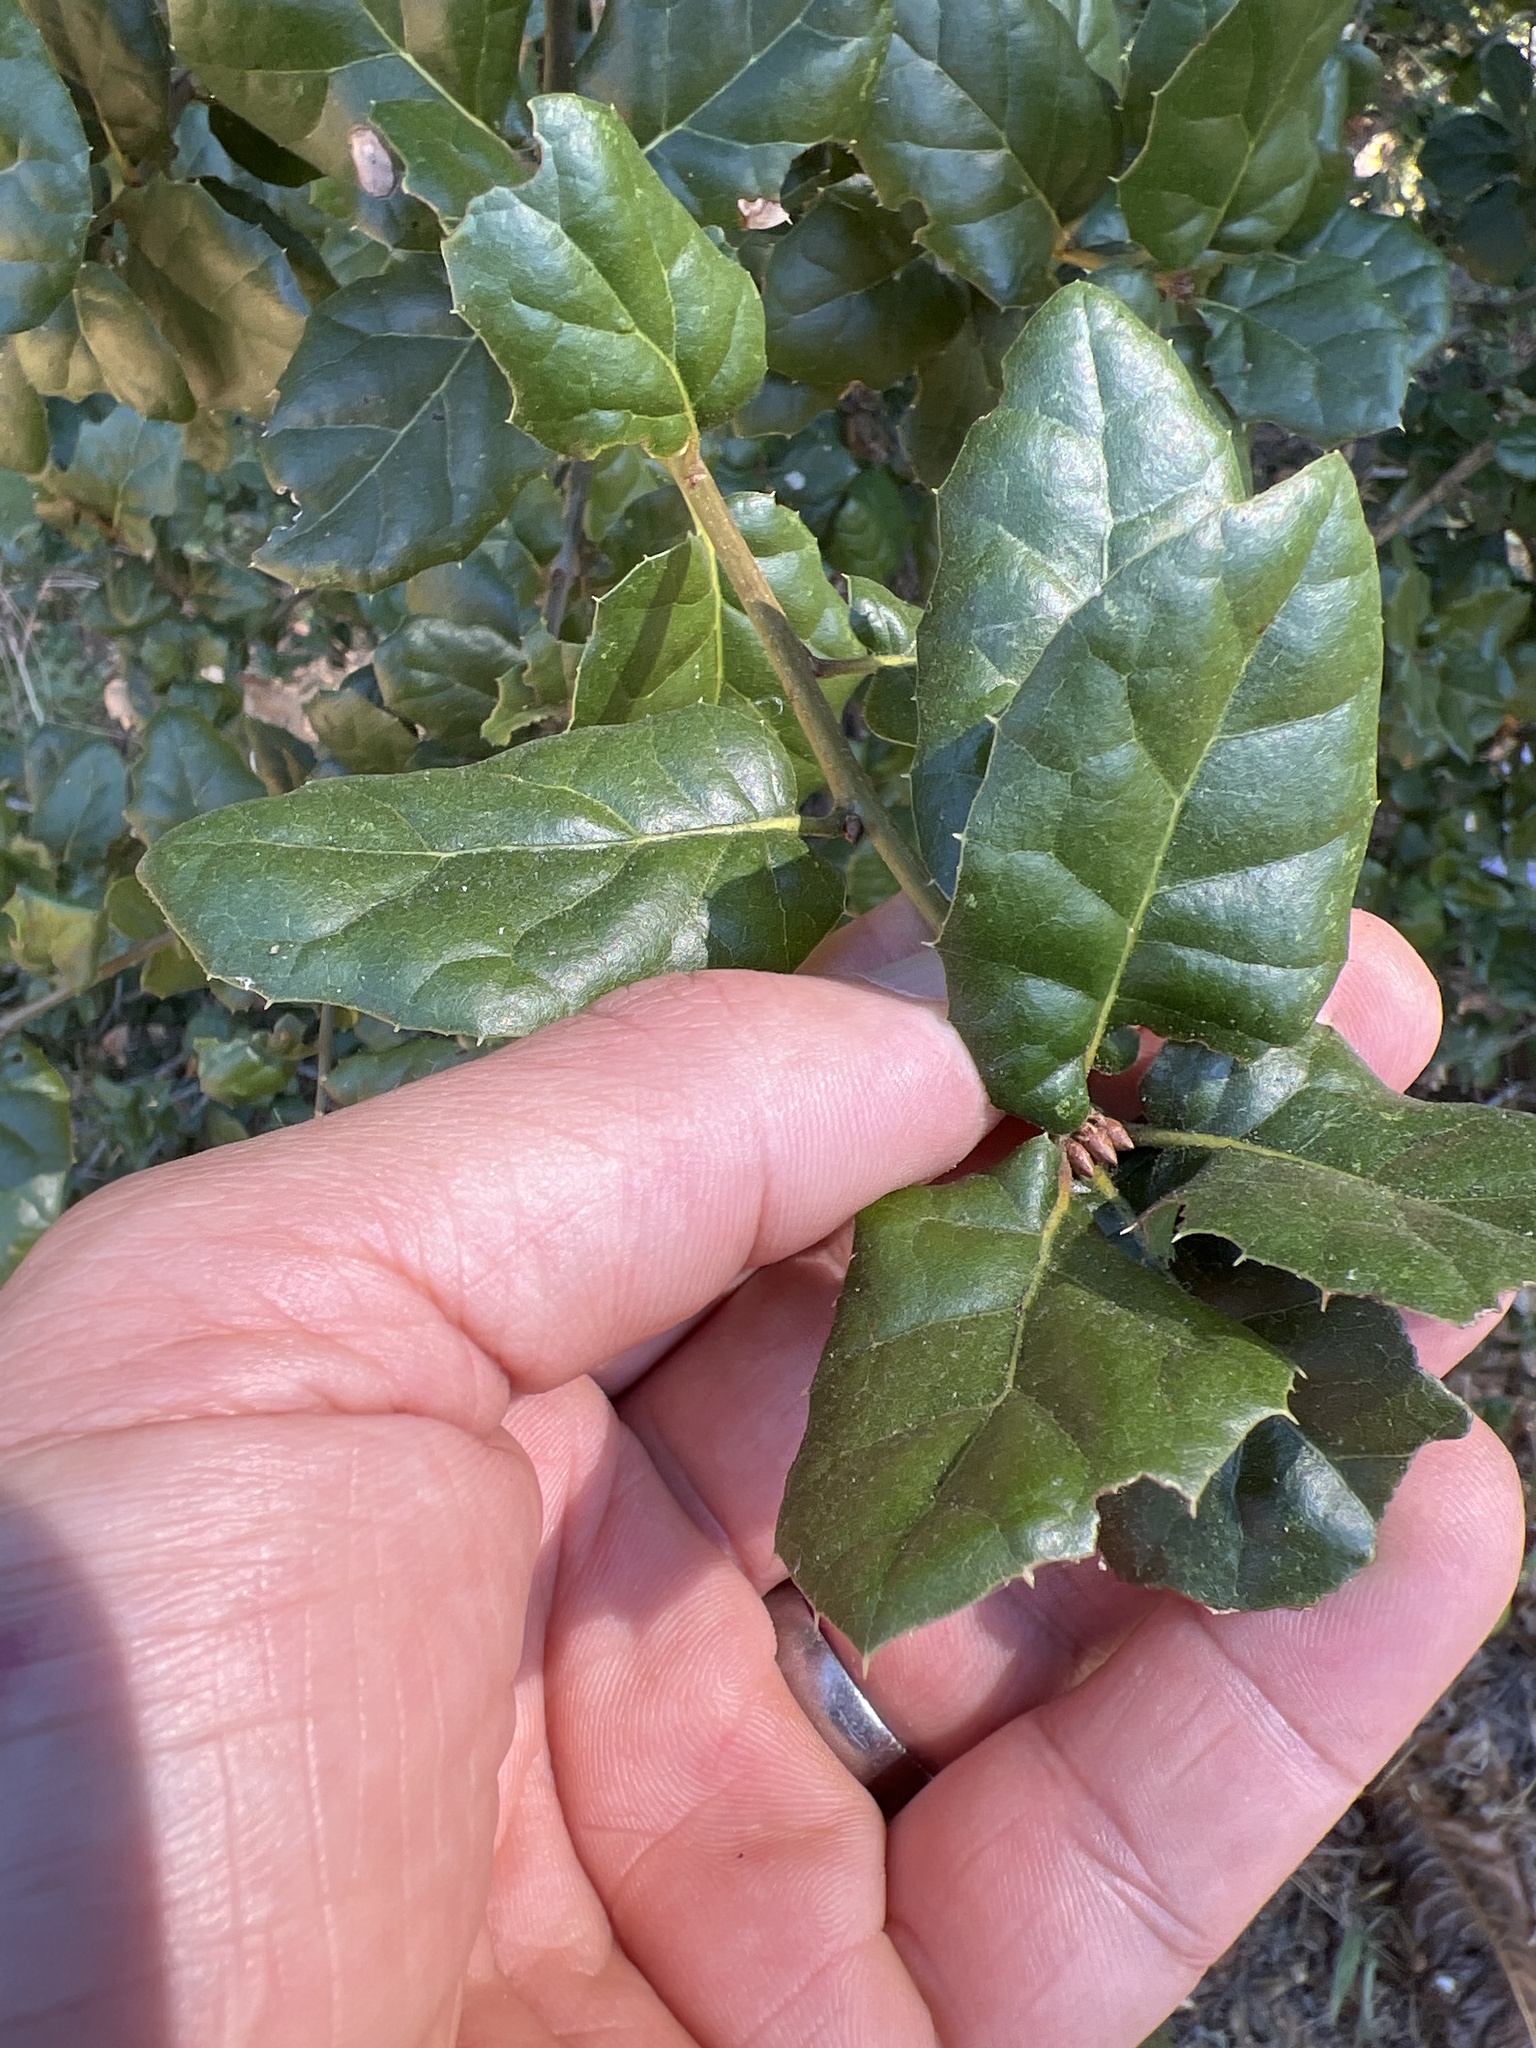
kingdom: Plantae
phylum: Tracheophyta
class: Magnoliopsida
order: Fagales
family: Fagaceae
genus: Quercus
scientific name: Quercus agrifolia
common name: California live oak
